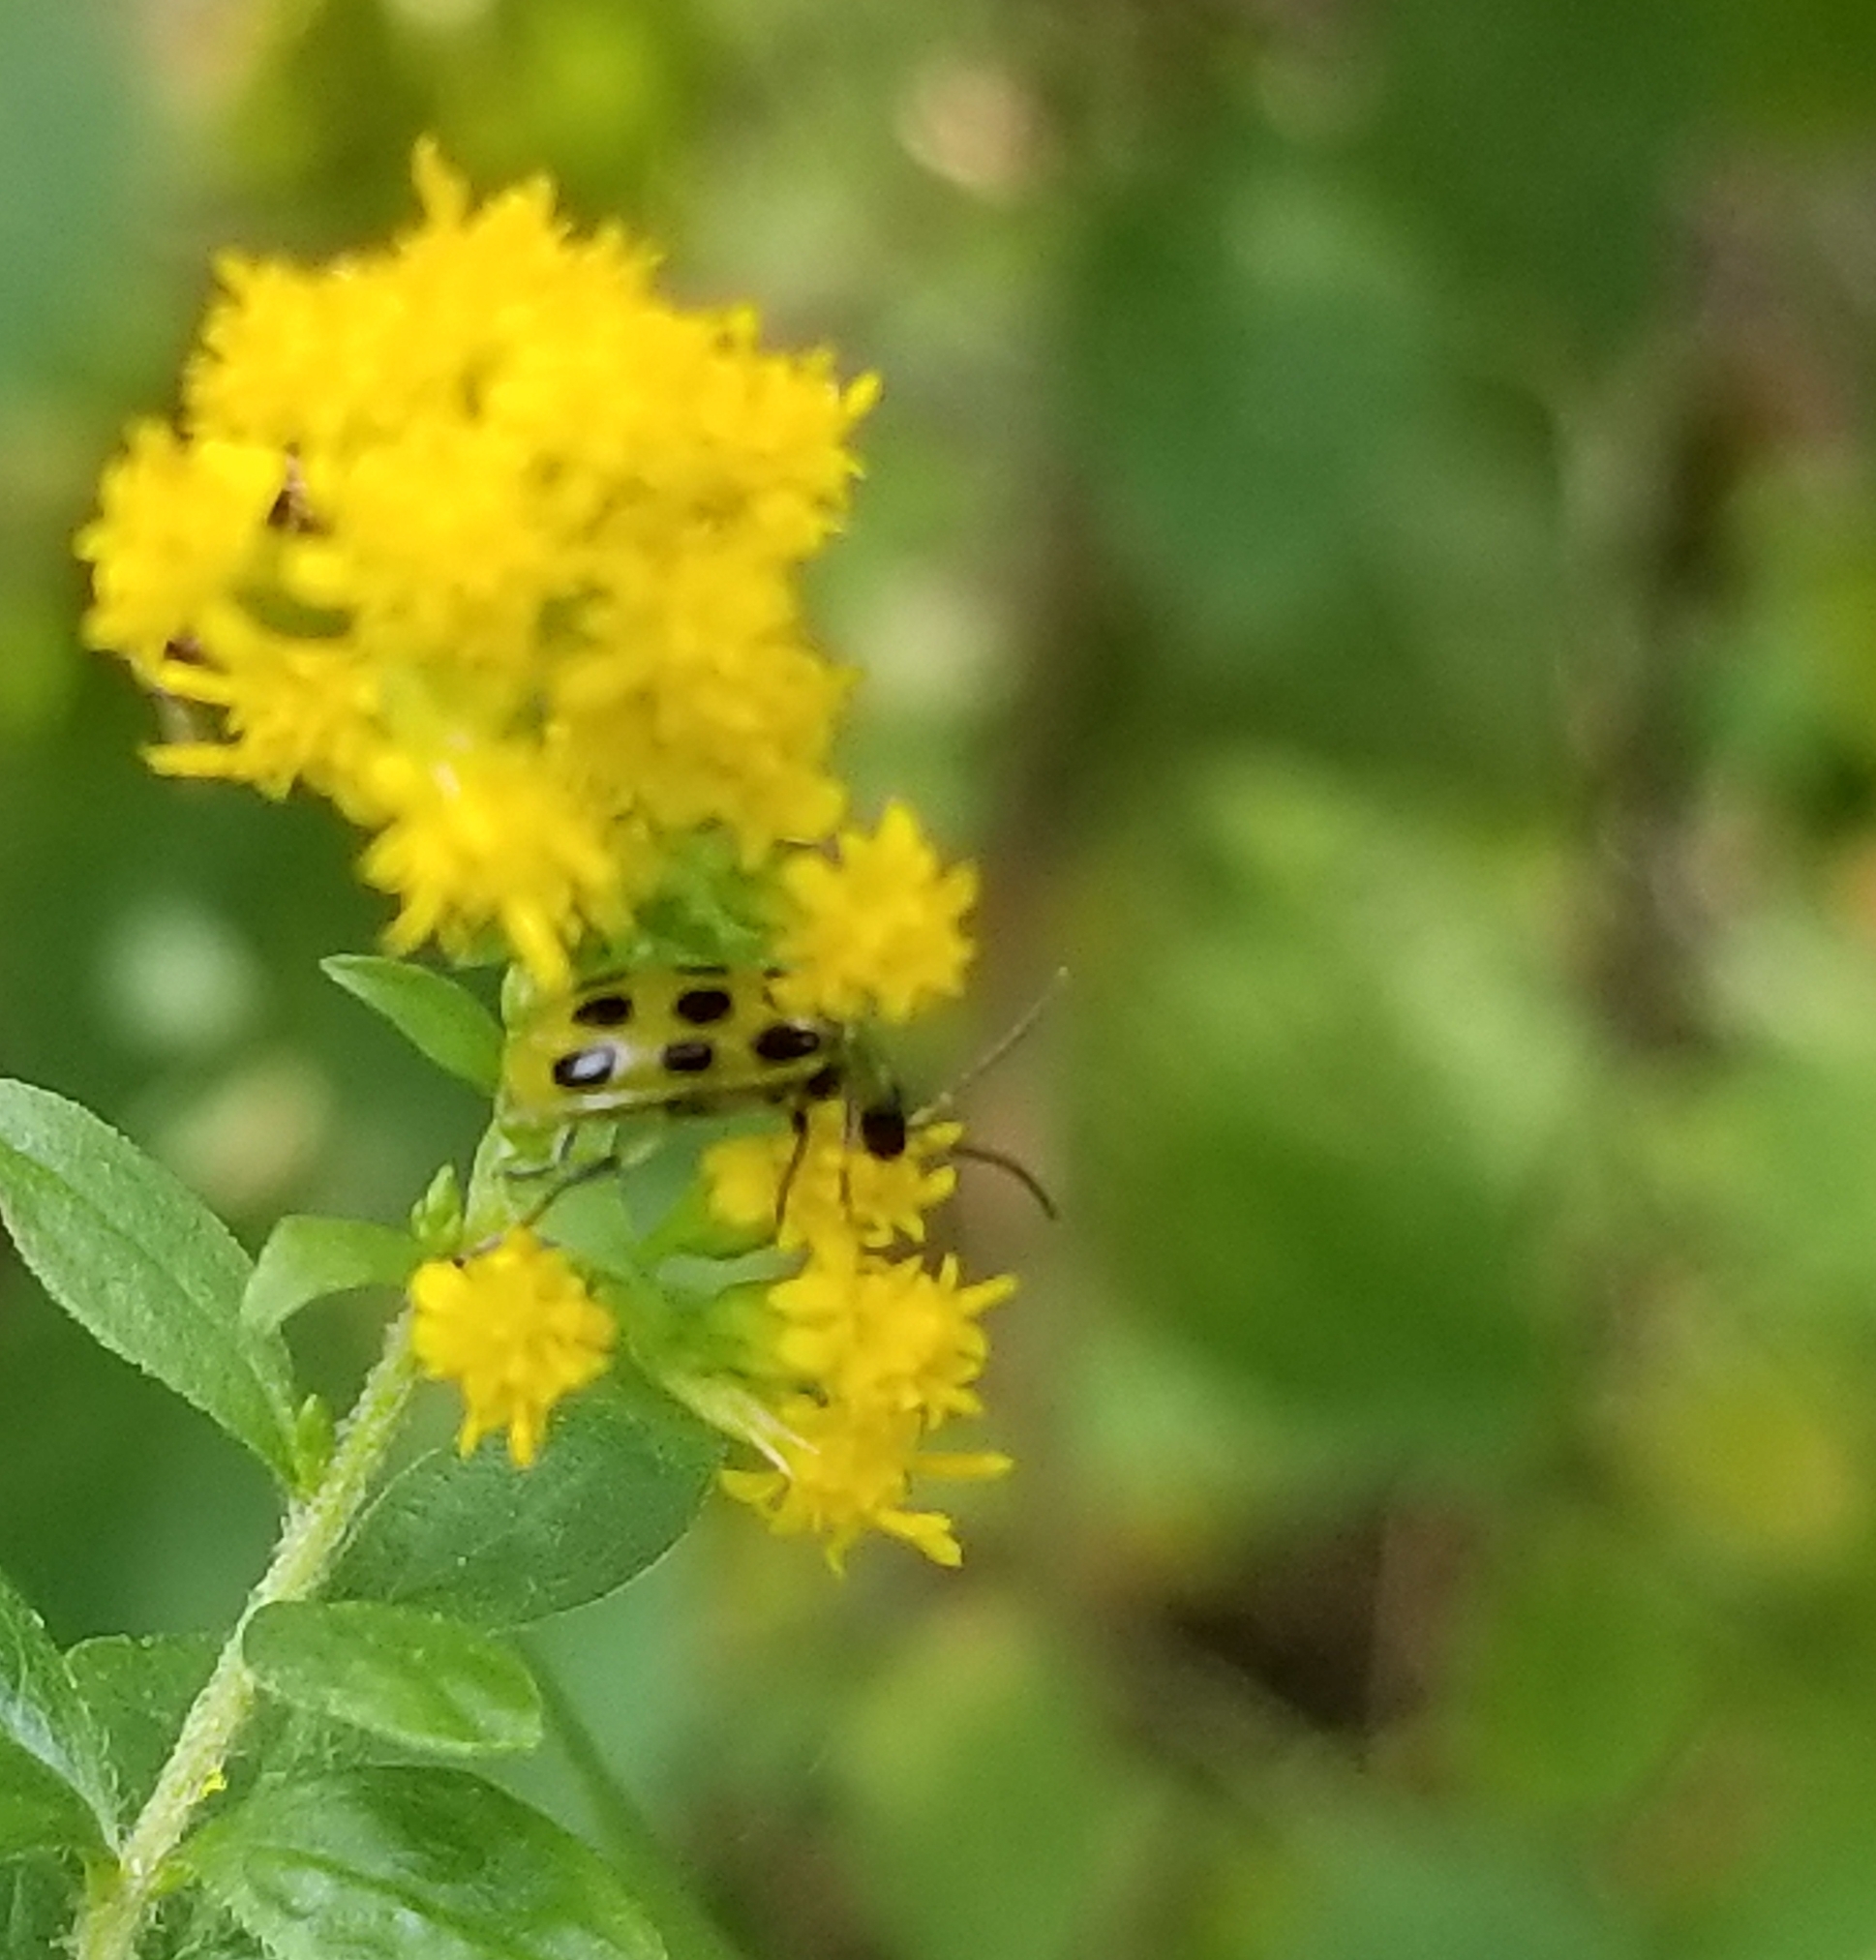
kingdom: Animalia
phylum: Arthropoda
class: Insecta
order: Coleoptera
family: Chrysomelidae
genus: Diabrotica
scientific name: Diabrotica undecimpunctata
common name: Spotted cucumber beetle
